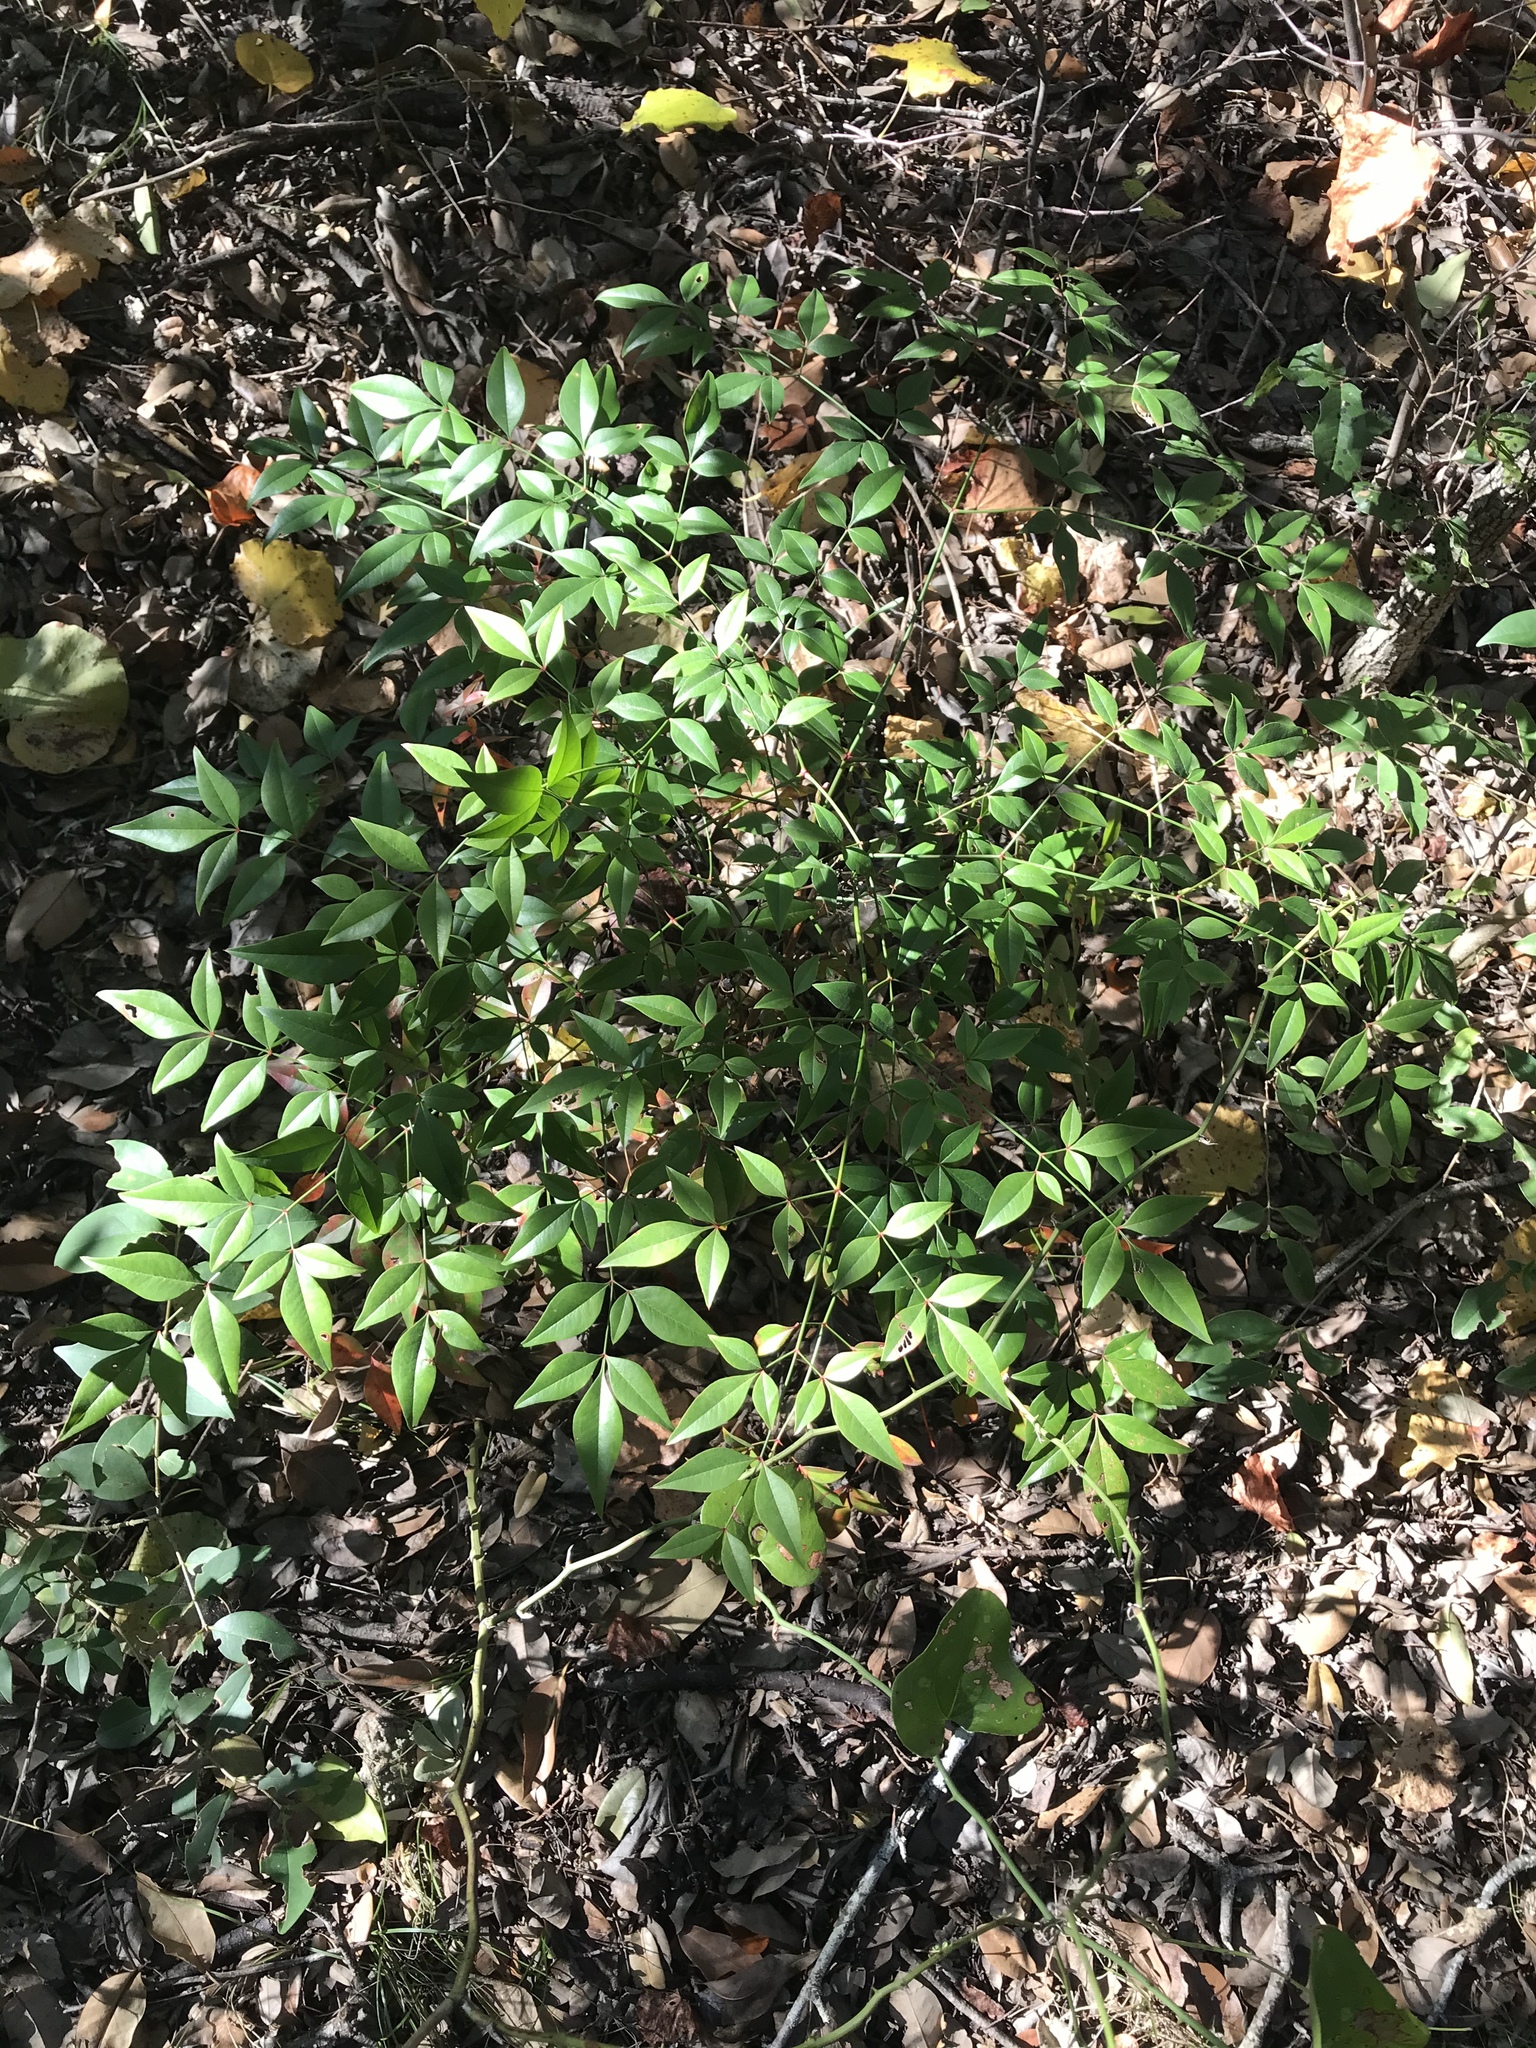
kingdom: Plantae
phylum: Tracheophyta
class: Magnoliopsida
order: Ranunculales
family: Berberidaceae
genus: Nandina
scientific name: Nandina domestica
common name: Sacred bamboo
